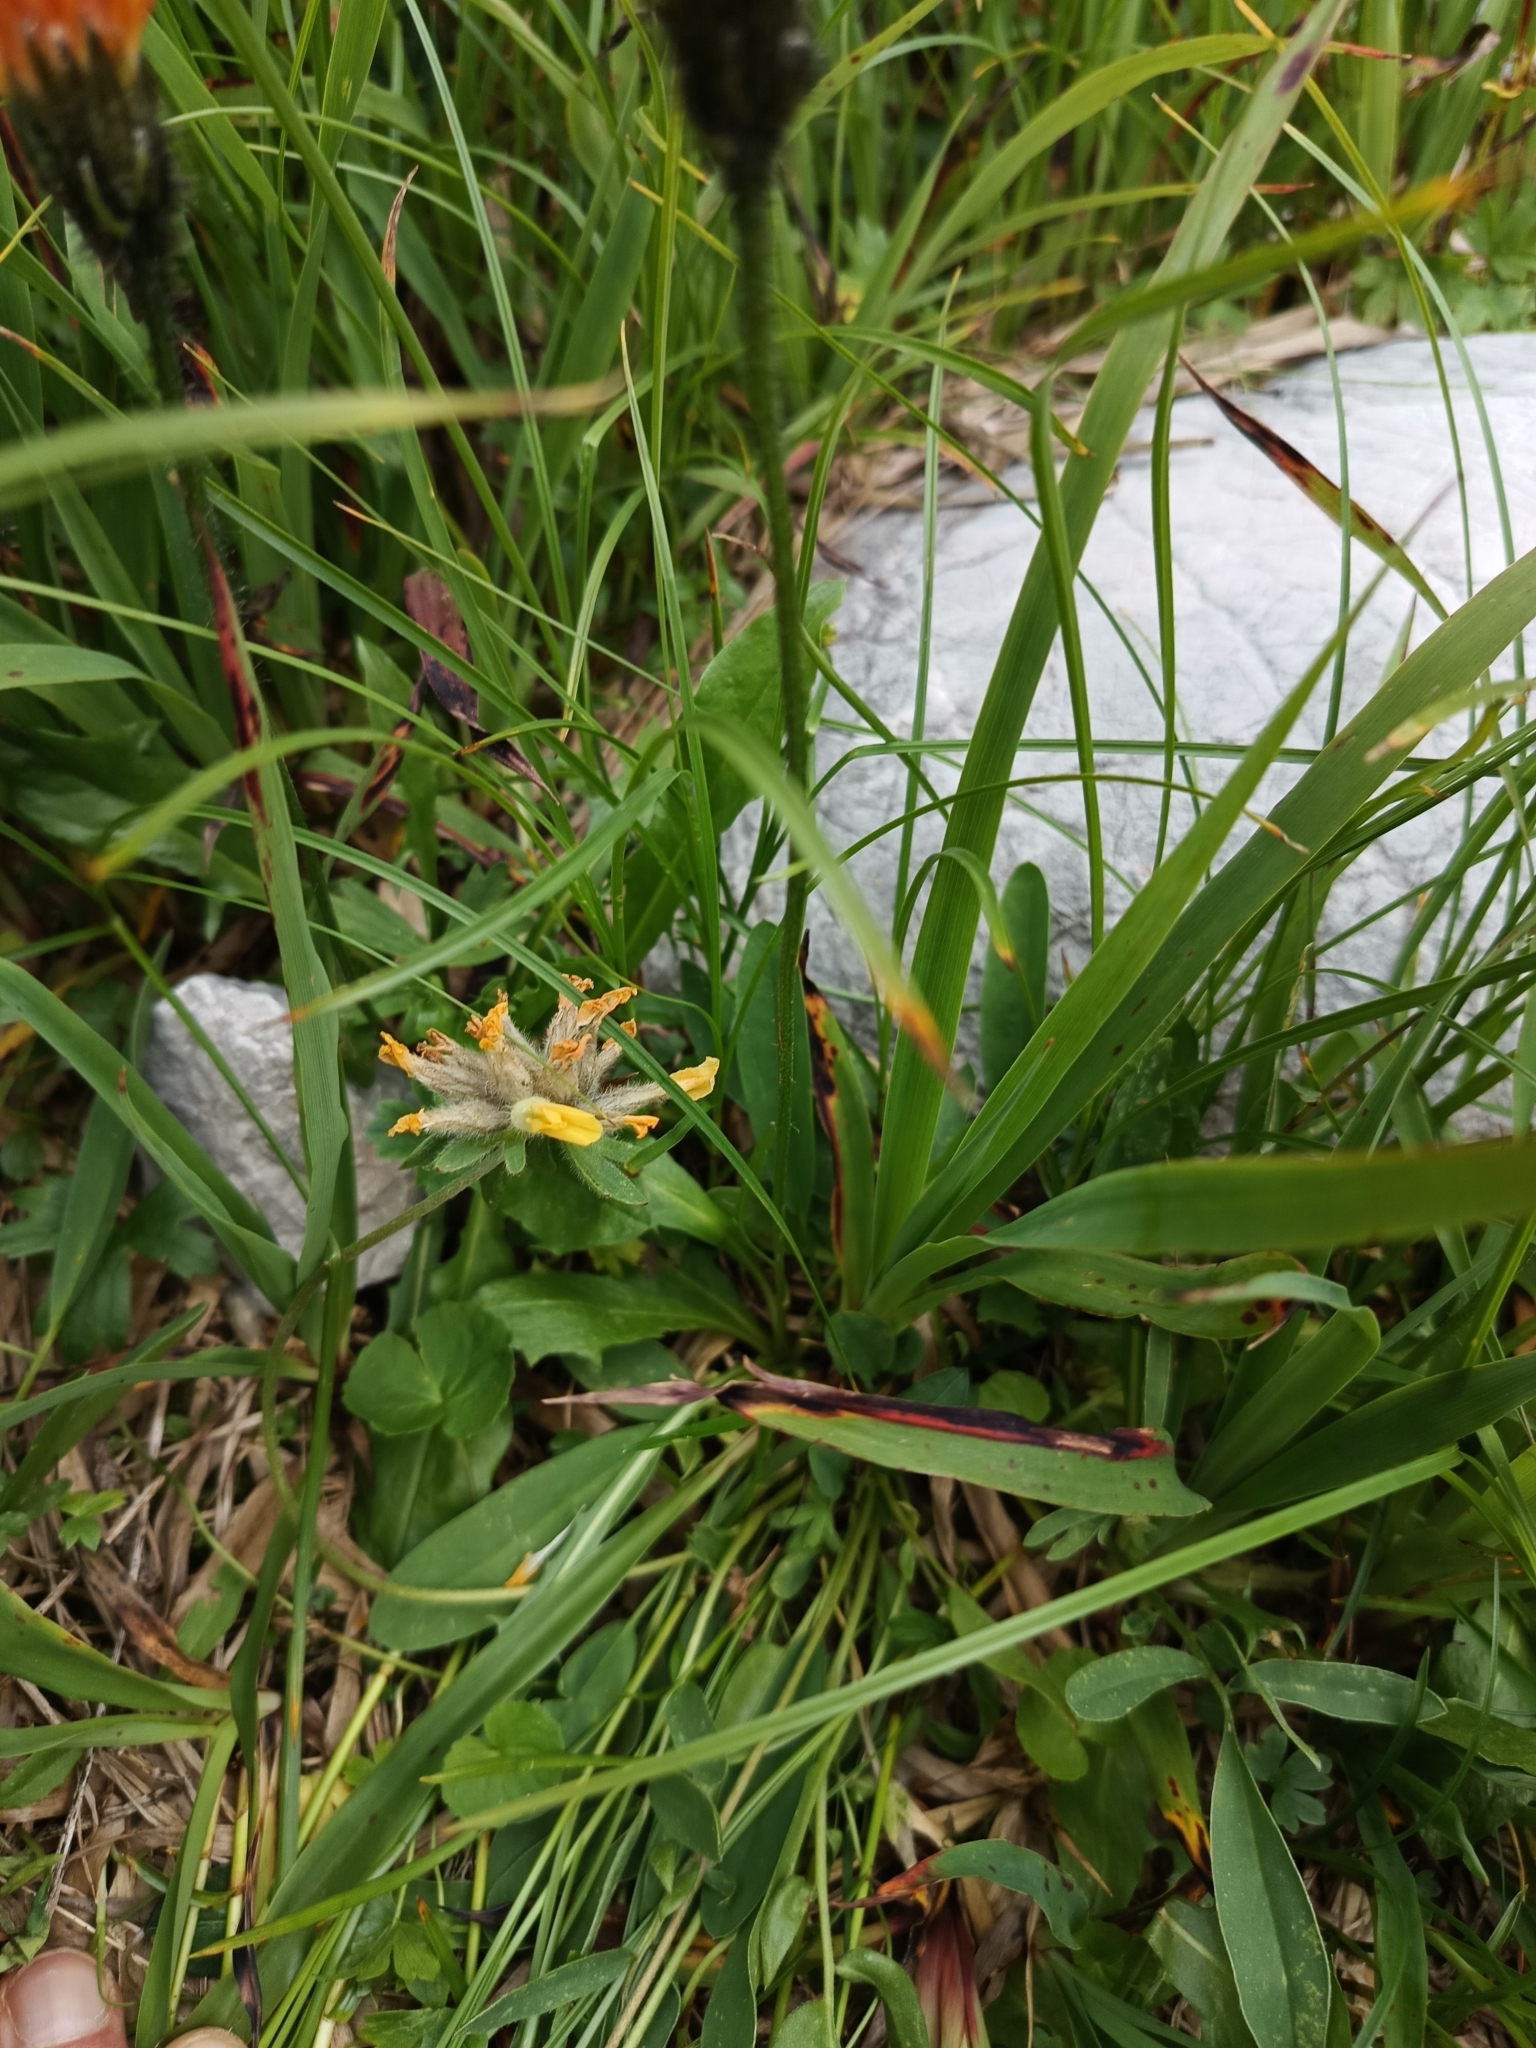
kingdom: Plantae
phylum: Tracheophyta
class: Magnoliopsida
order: Asterales
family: Asteraceae
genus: Crepis
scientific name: Crepis aurea
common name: Golden hawk's-beard
